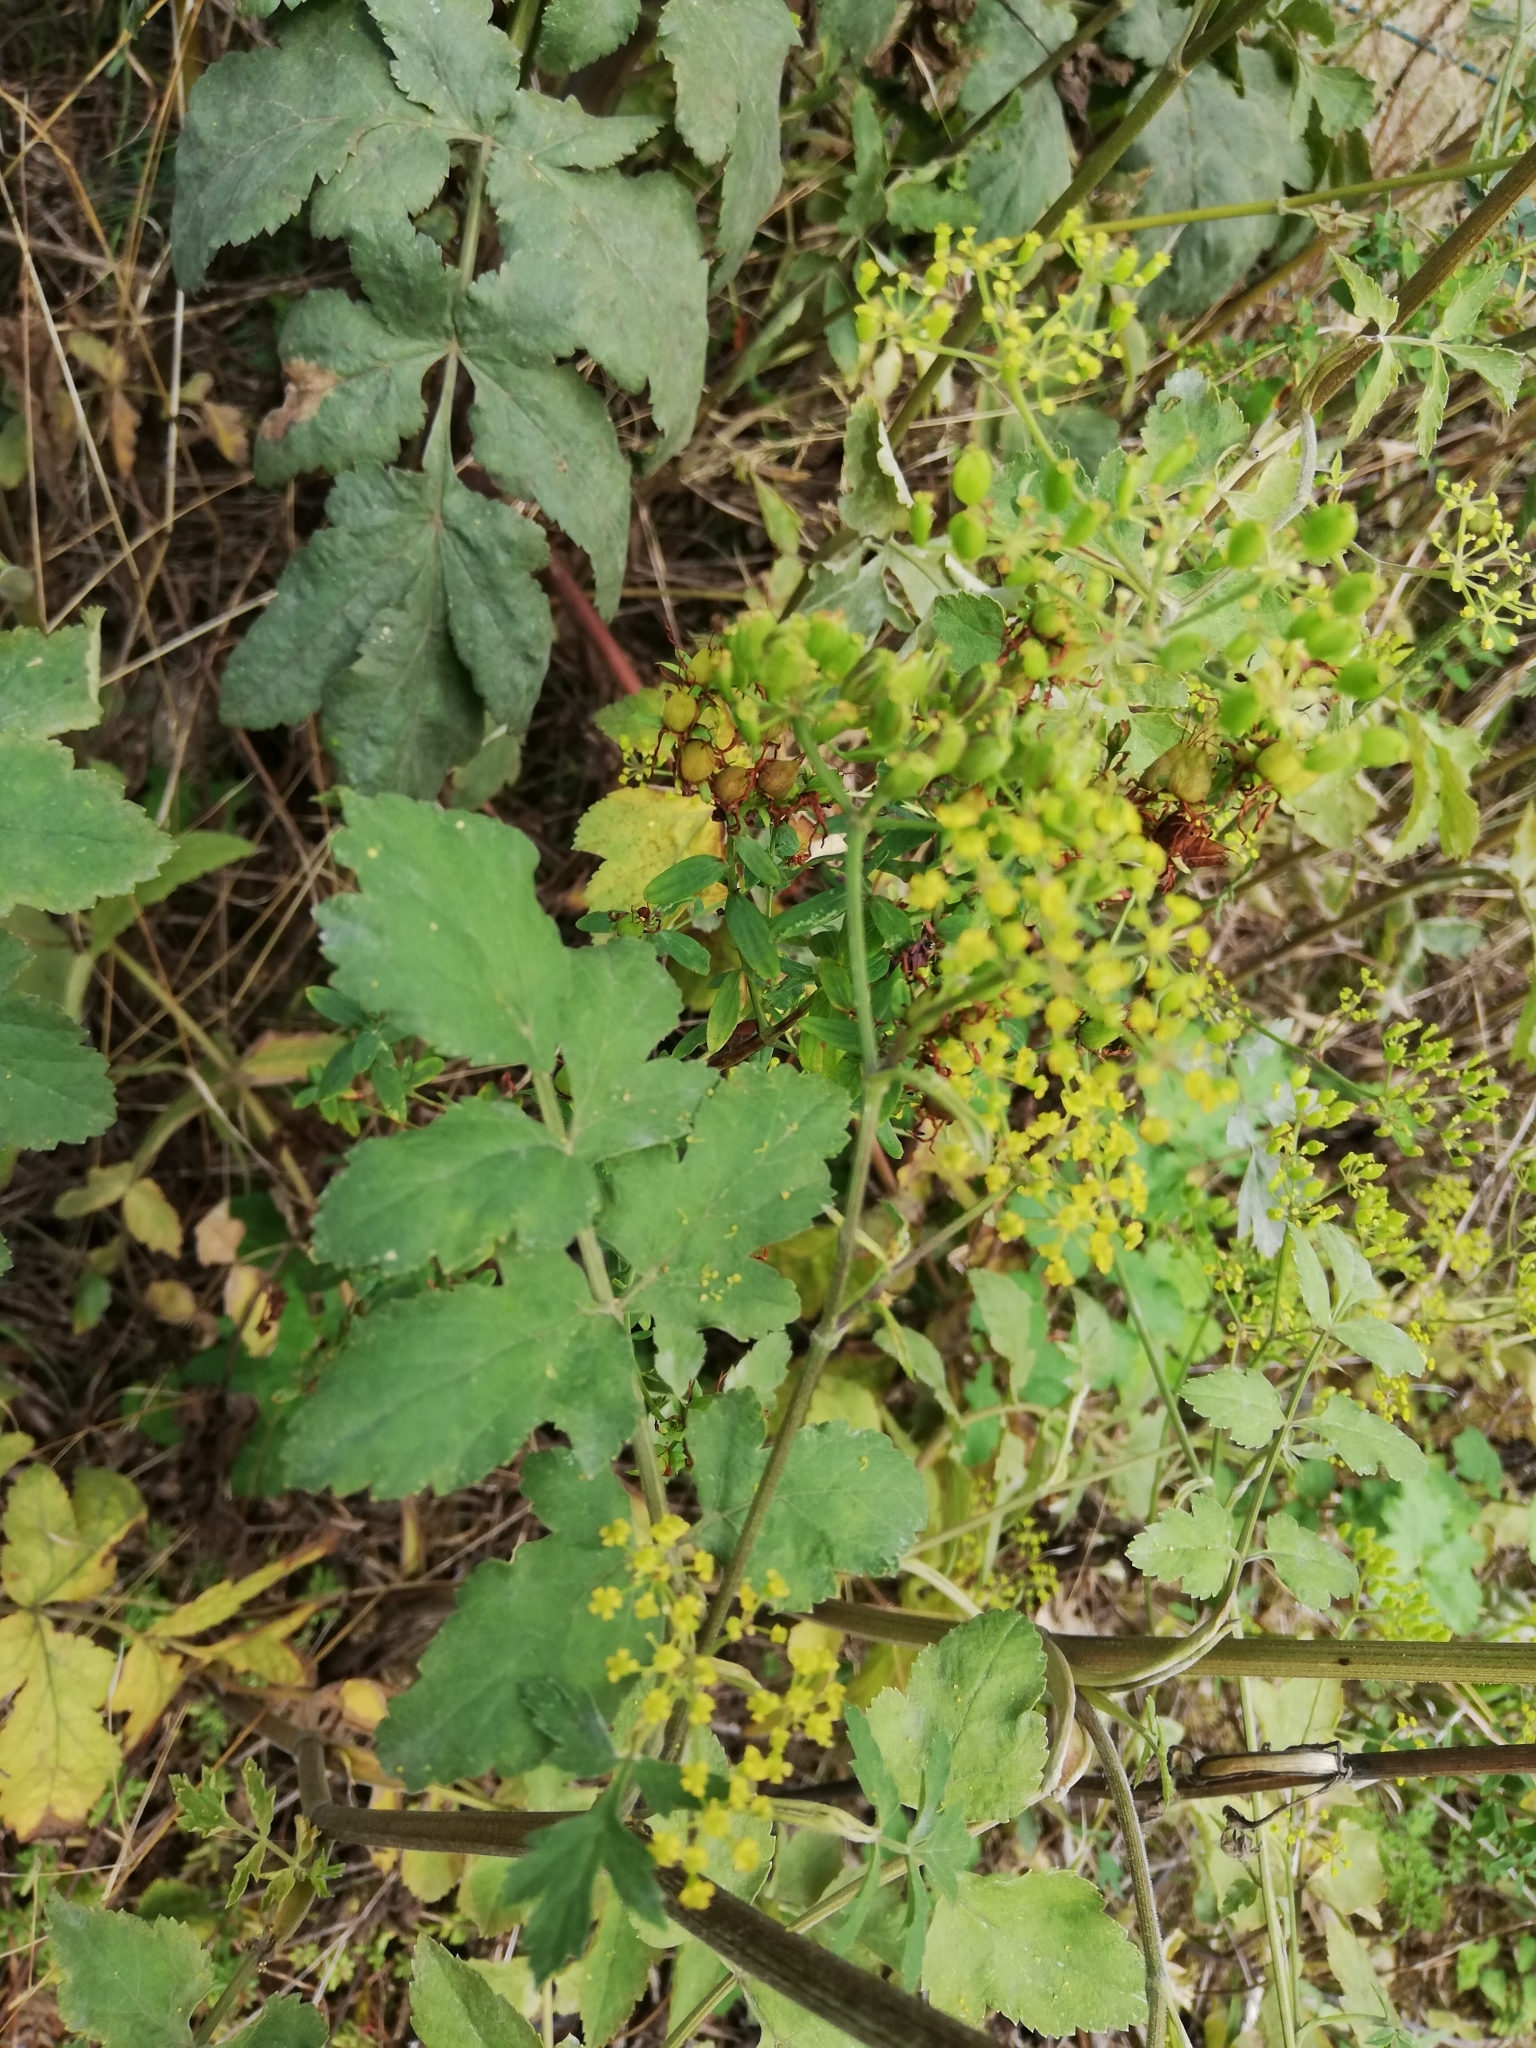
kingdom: Plantae
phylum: Tracheophyta
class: Magnoliopsida
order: Apiales
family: Apiaceae
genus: Pastinaca
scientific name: Pastinaca sativa
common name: Wild parsnip
